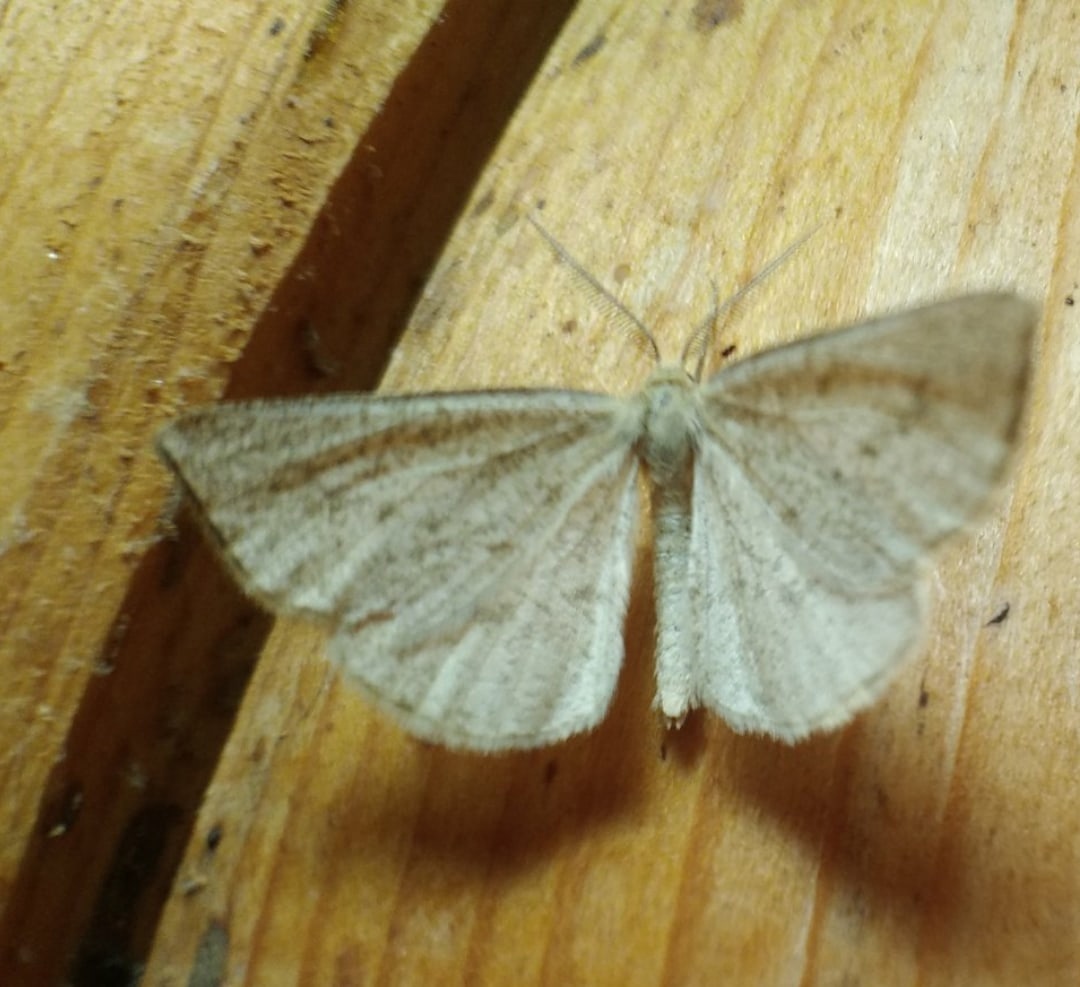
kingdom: Animalia
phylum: Arthropoda
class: Insecta
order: Lepidoptera
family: Geometridae
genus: Hypoxystis
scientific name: Hypoxystis pluviaria
